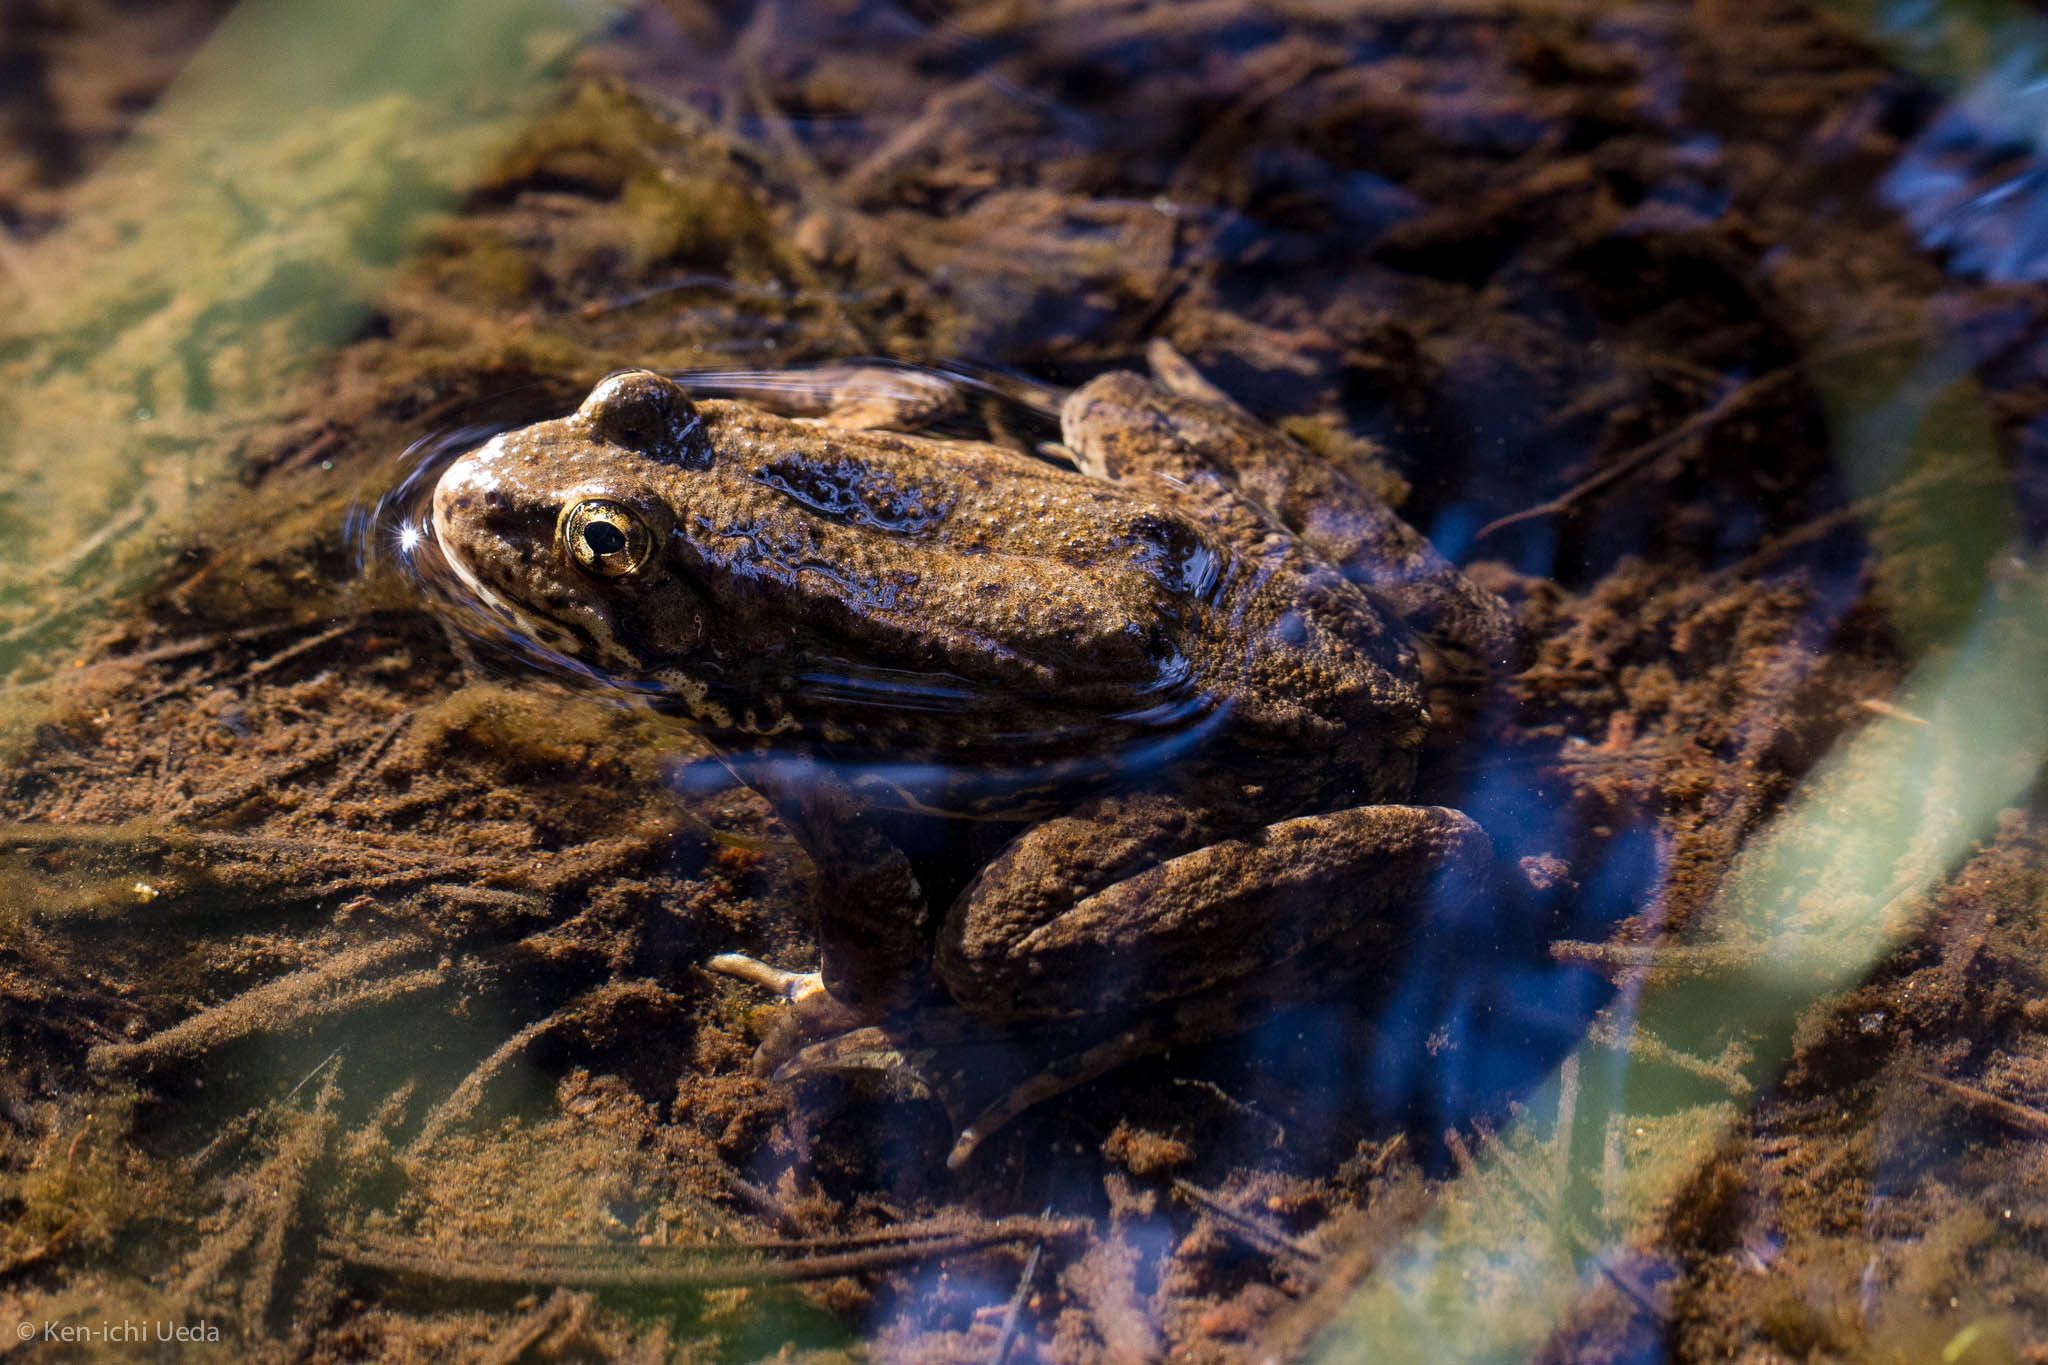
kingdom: Animalia
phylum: Chordata
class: Amphibia
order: Anura
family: Ranidae
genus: Rana
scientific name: Rana sierrae
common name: Sierra nevada yellow-legged frog
